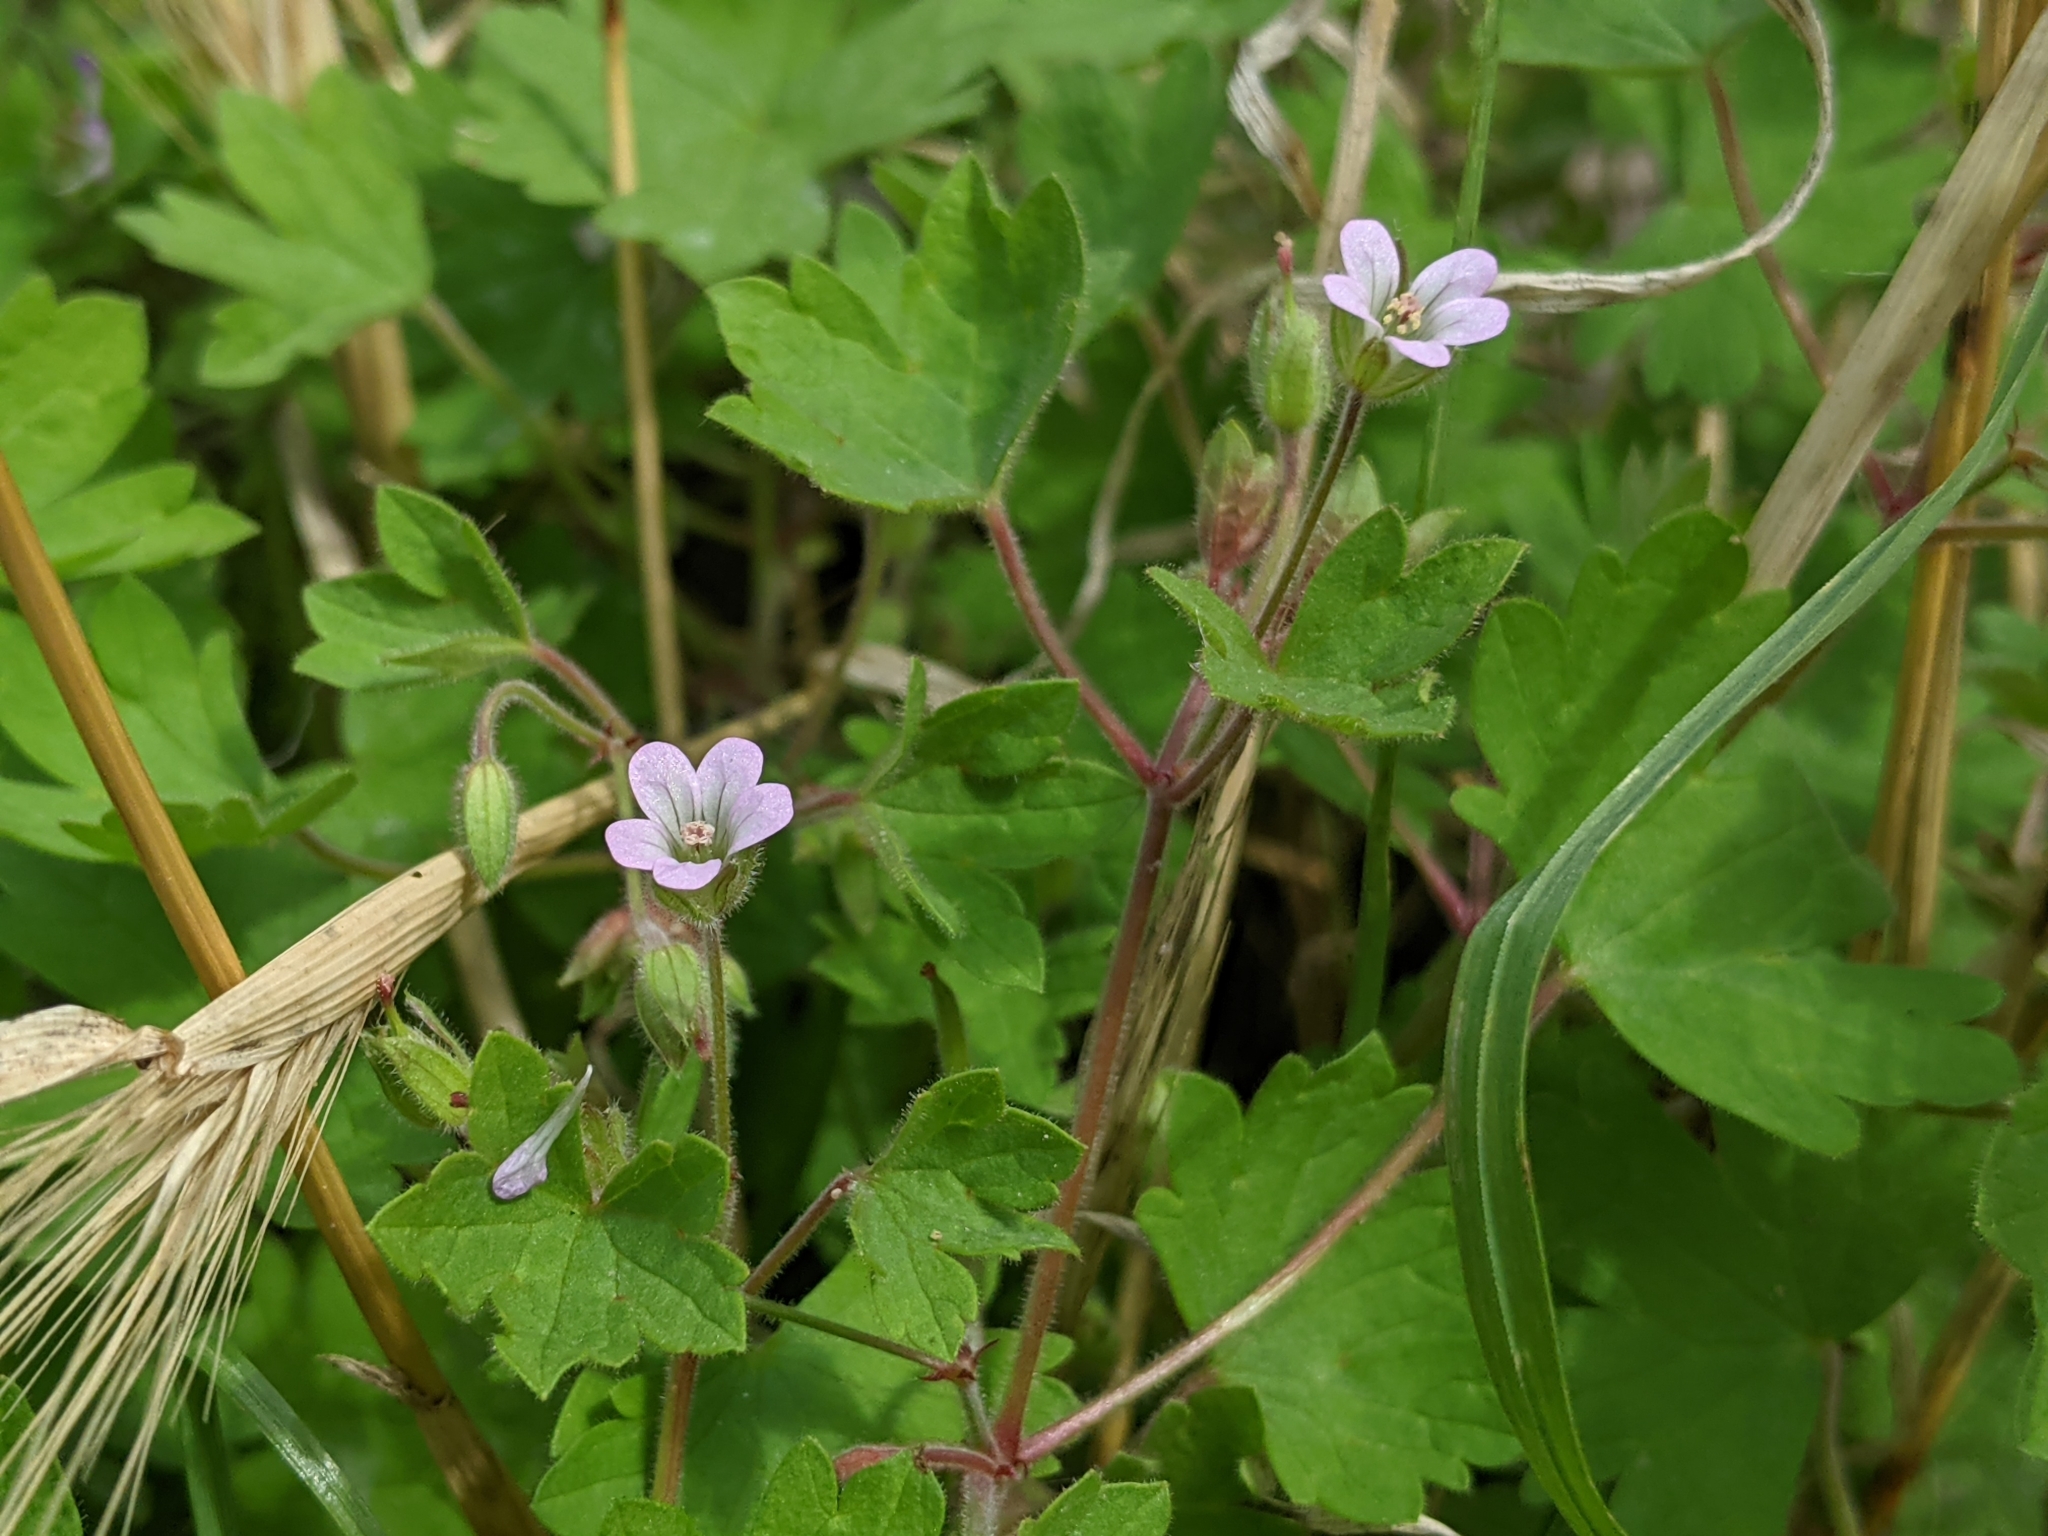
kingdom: Plantae
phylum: Tracheophyta
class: Magnoliopsida
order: Geraniales
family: Geraniaceae
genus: Geranium
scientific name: Geranium rotundifolium
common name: Round-leaved crane's-bill
